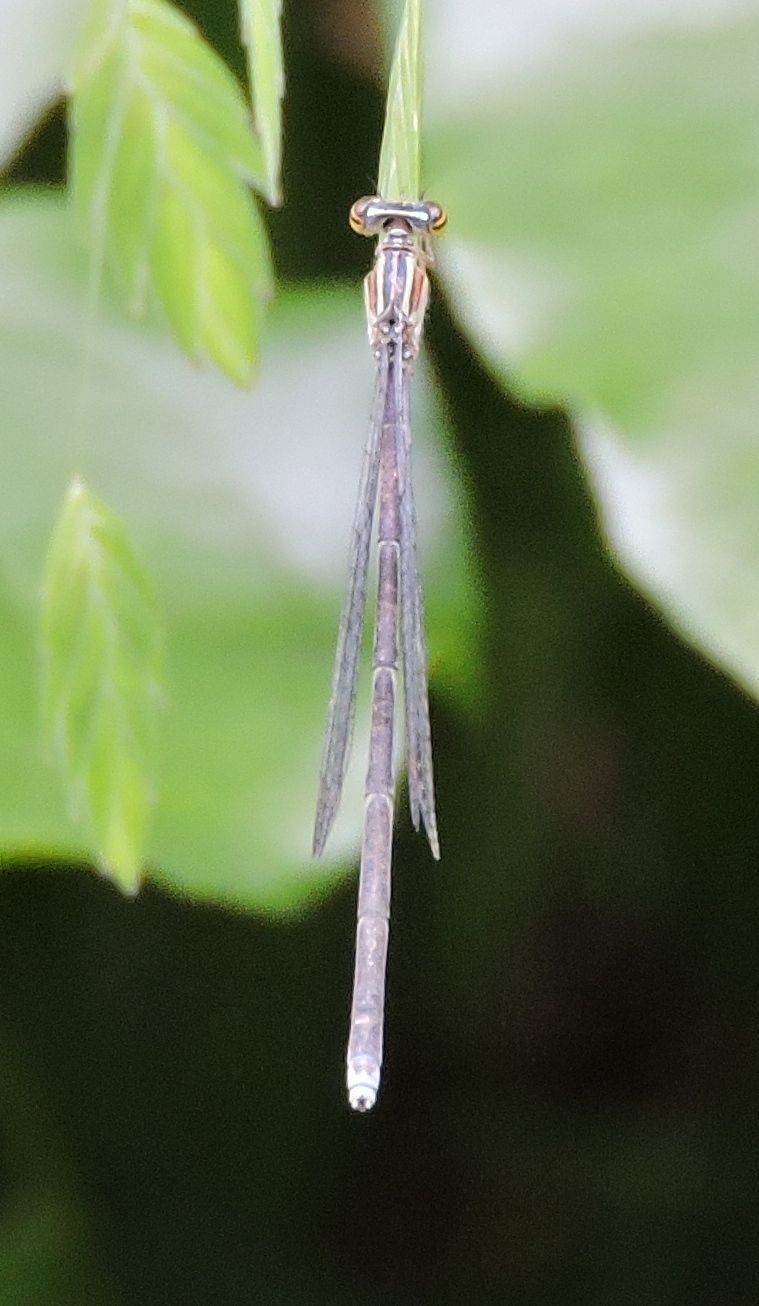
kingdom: Animalia
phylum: Arthropoda
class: Insecta
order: Odonata
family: Coenagrionidae
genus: Enallagma
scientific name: Enallagma exsulans
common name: Stream bluet
